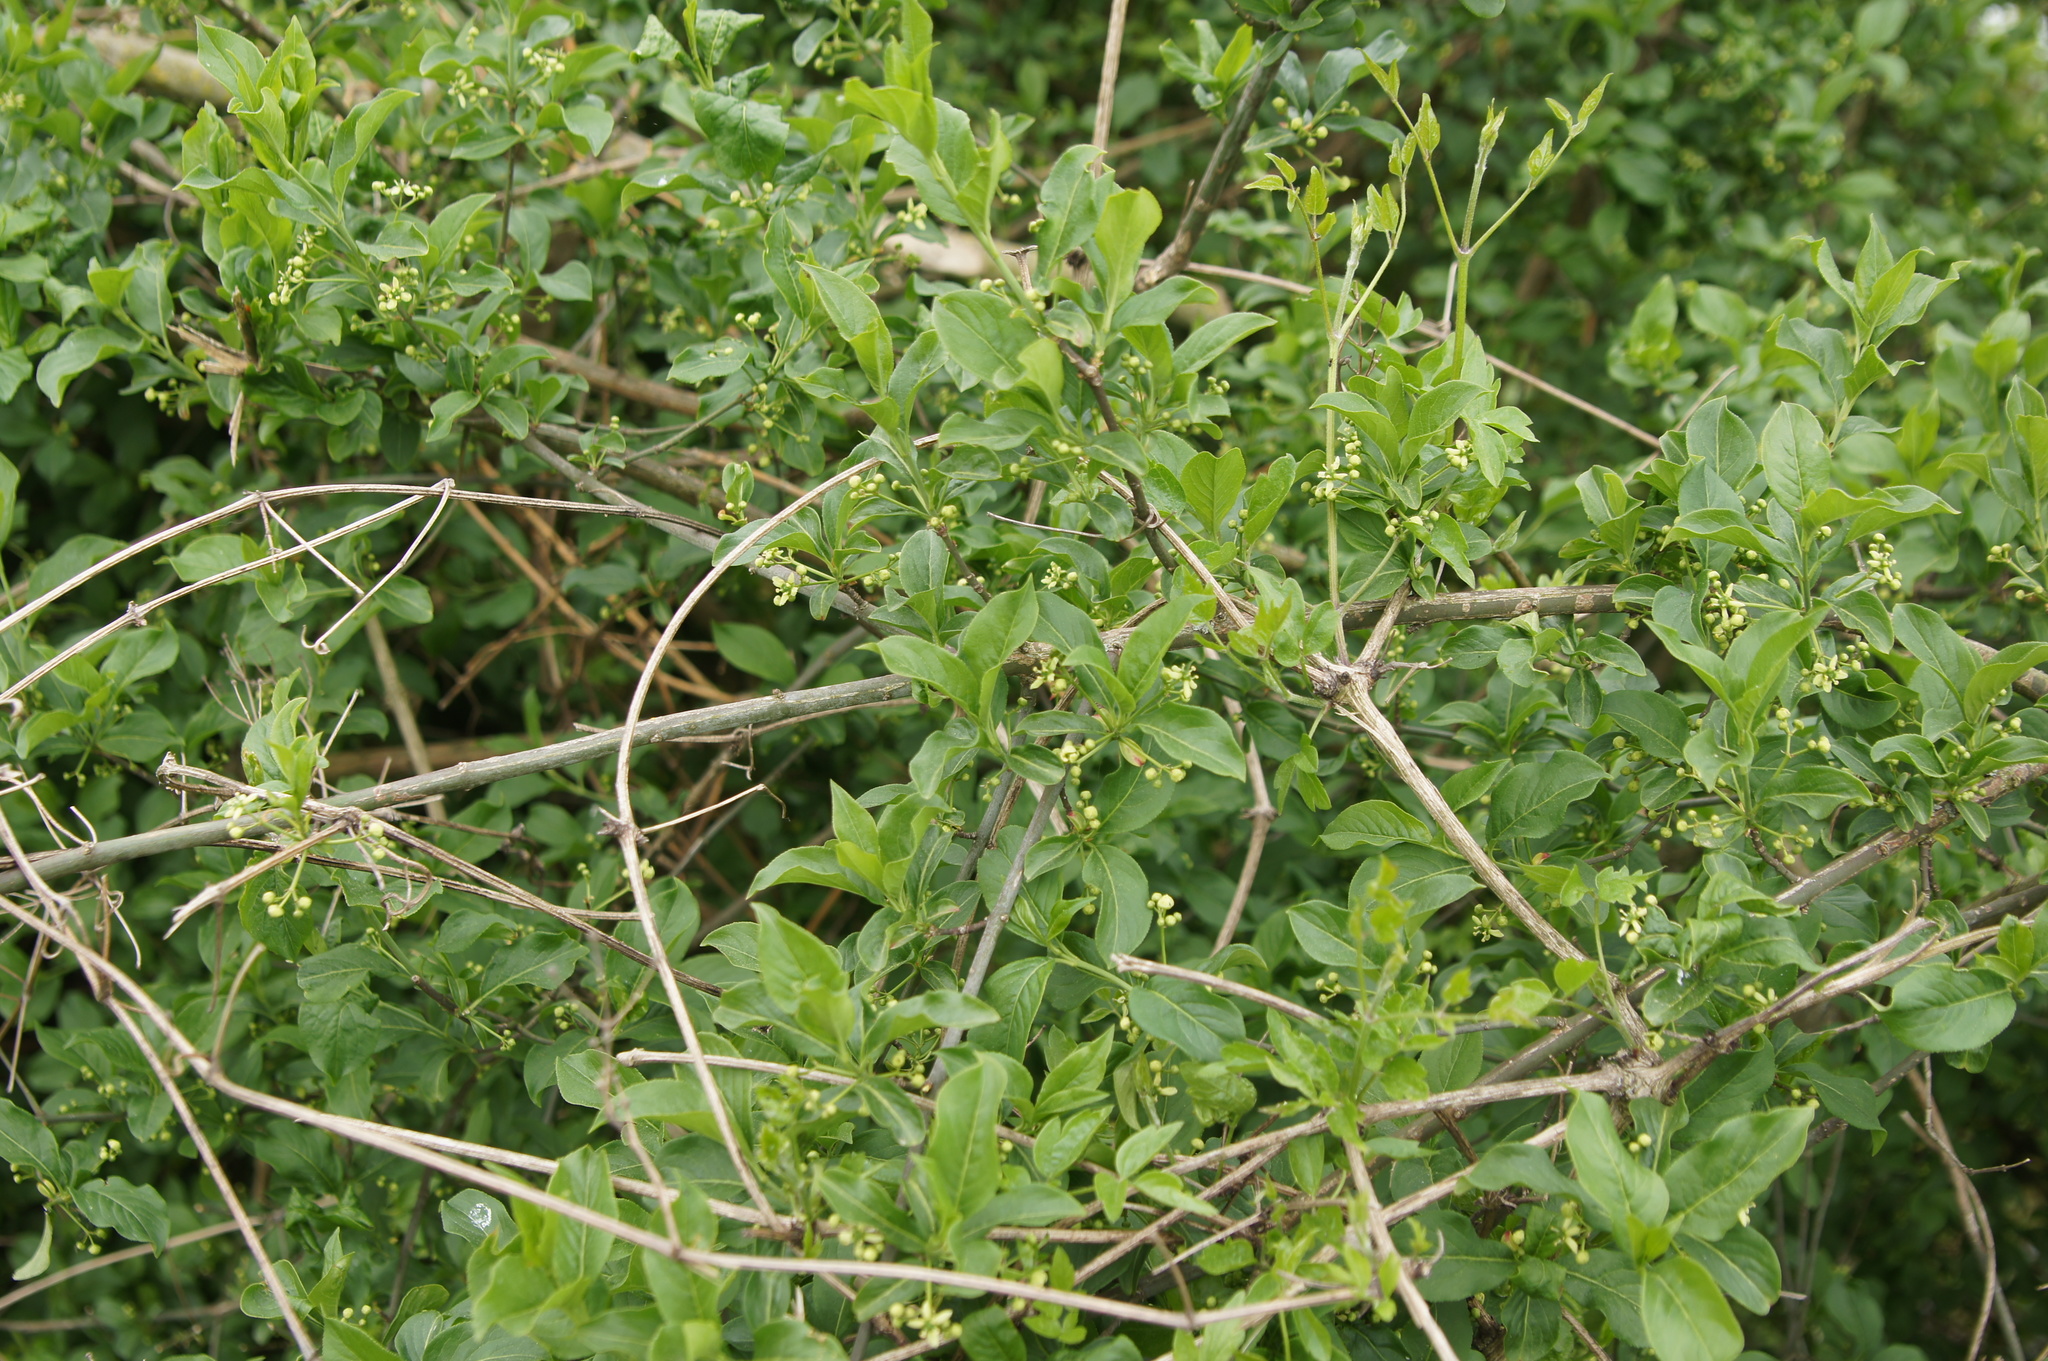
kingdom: Plantae
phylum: Tracheophyta
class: Magnoliopsida
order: Celastrales
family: Celastraceae
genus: Euonymus
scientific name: Euonymus europaeus
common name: Spindle
